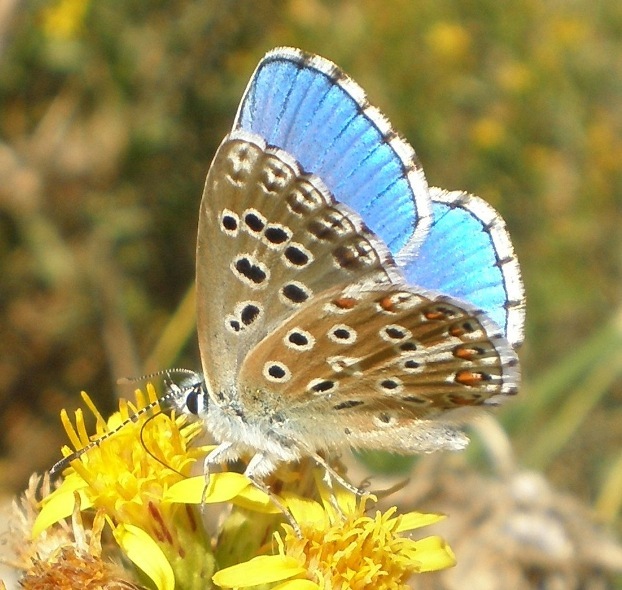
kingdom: Animalia
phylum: Arthropoda
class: Insecta
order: Lepidoptera
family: Lycaenidae
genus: Lysandra
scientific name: Lysandra bellargus
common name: Adonis blue
